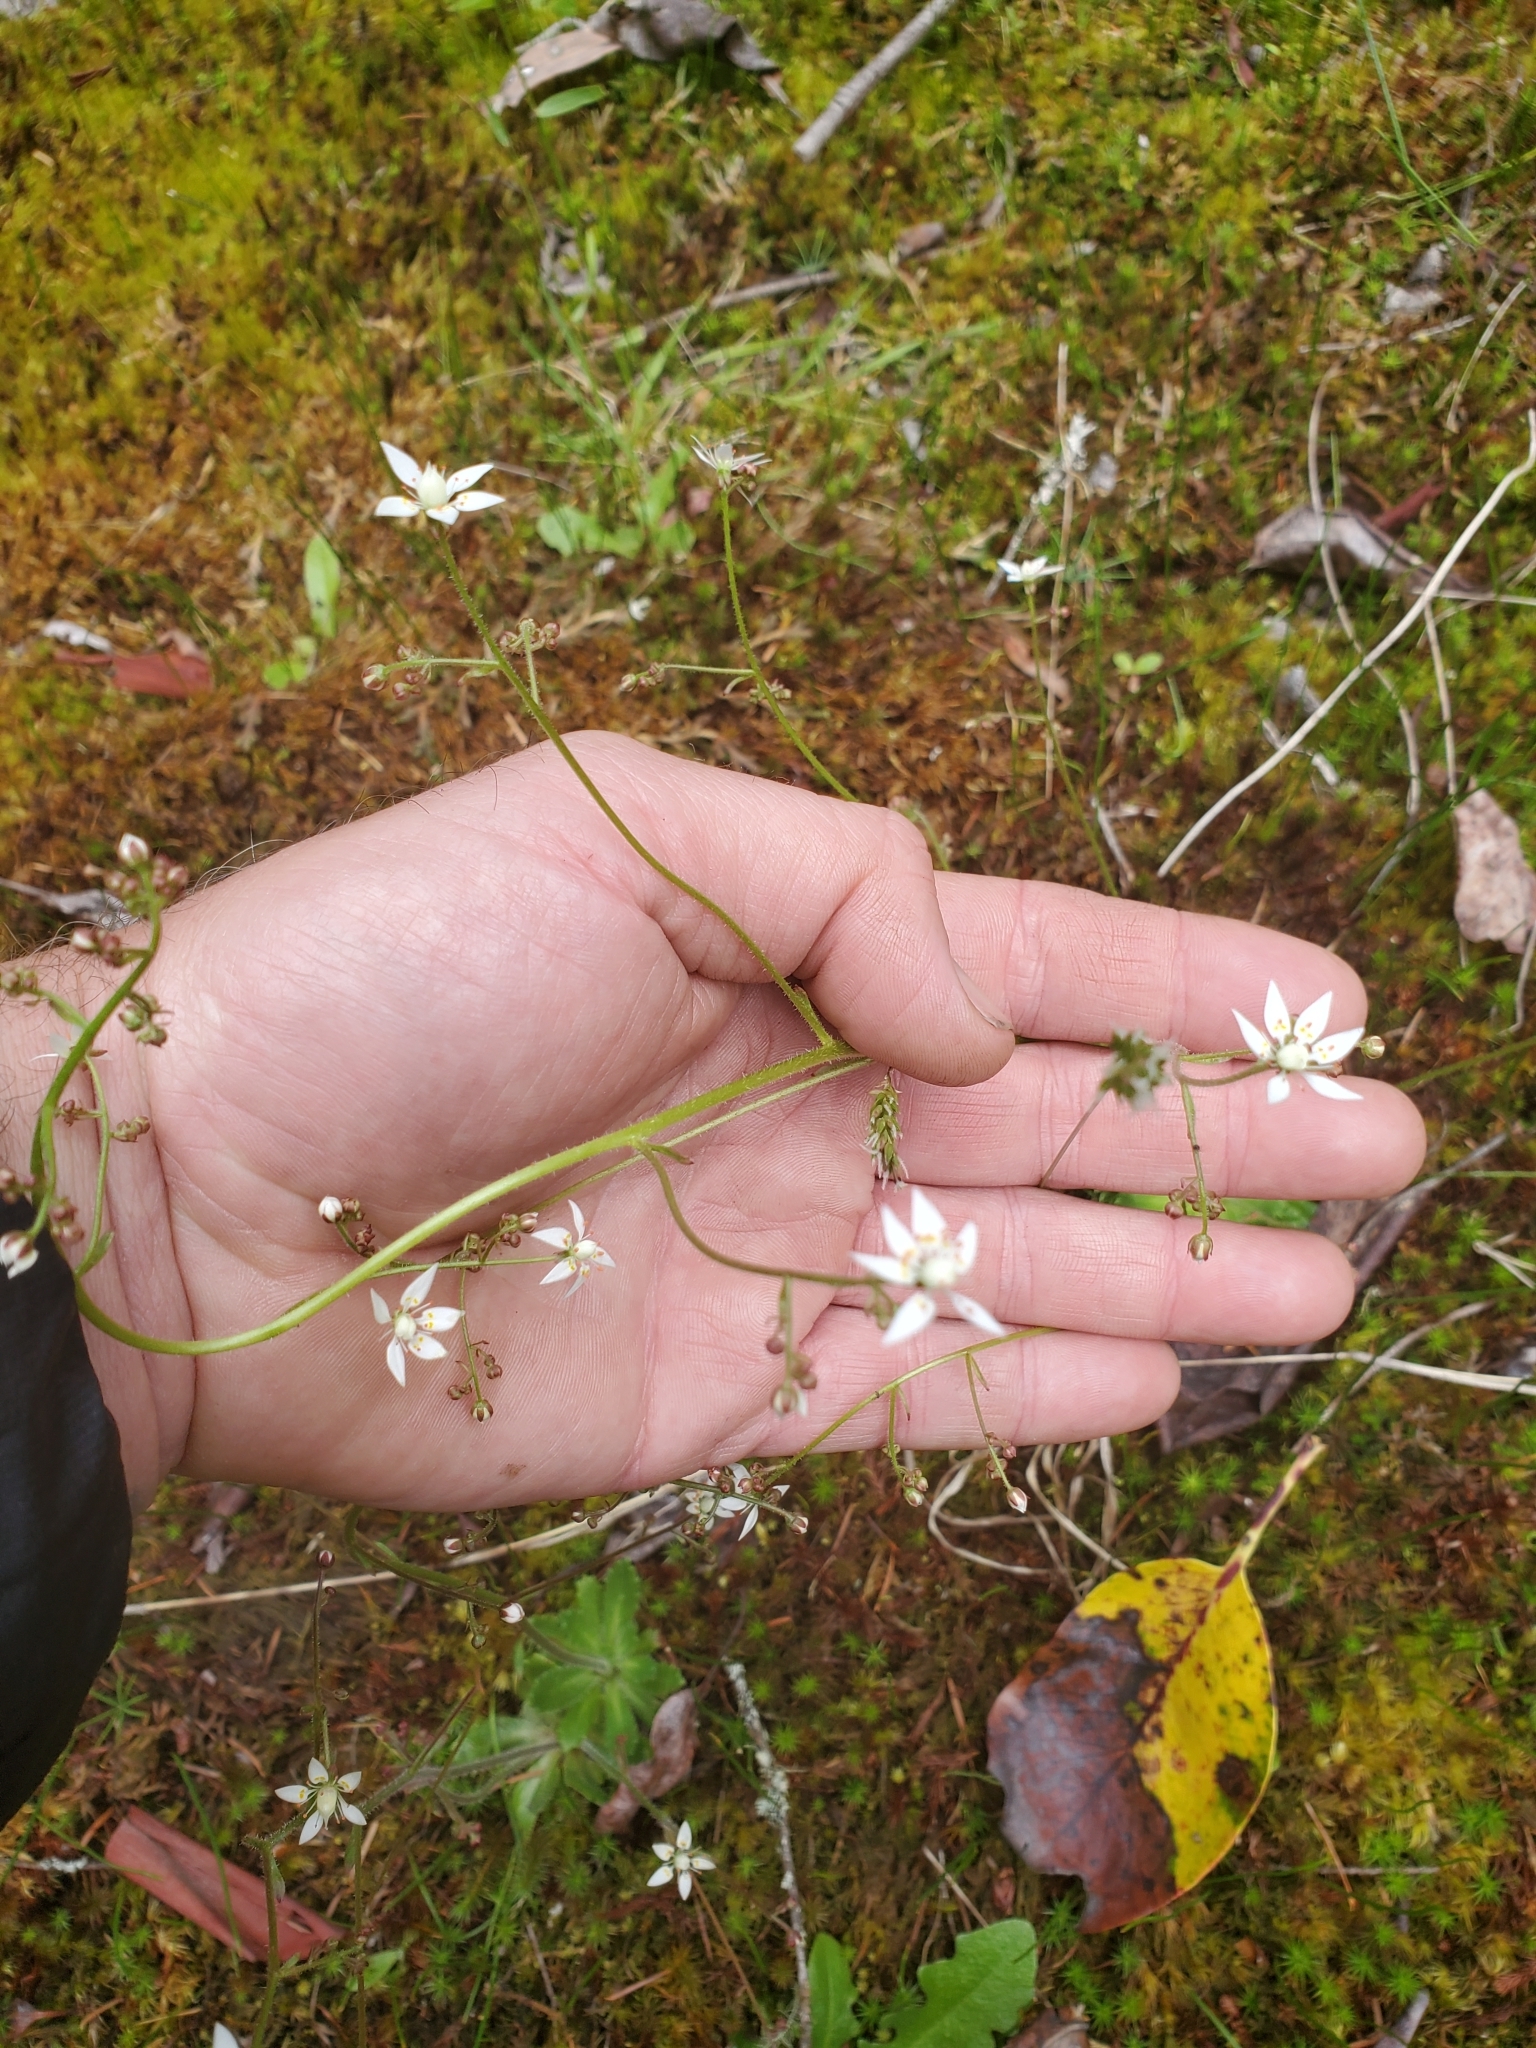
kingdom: Plantae
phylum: Tracheophyta
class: Magnoliopsida
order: Saxifragales
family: Saxifragaceae
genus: Micranthes
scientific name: Micranthes ferruginea
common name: Rusty saxifrage
